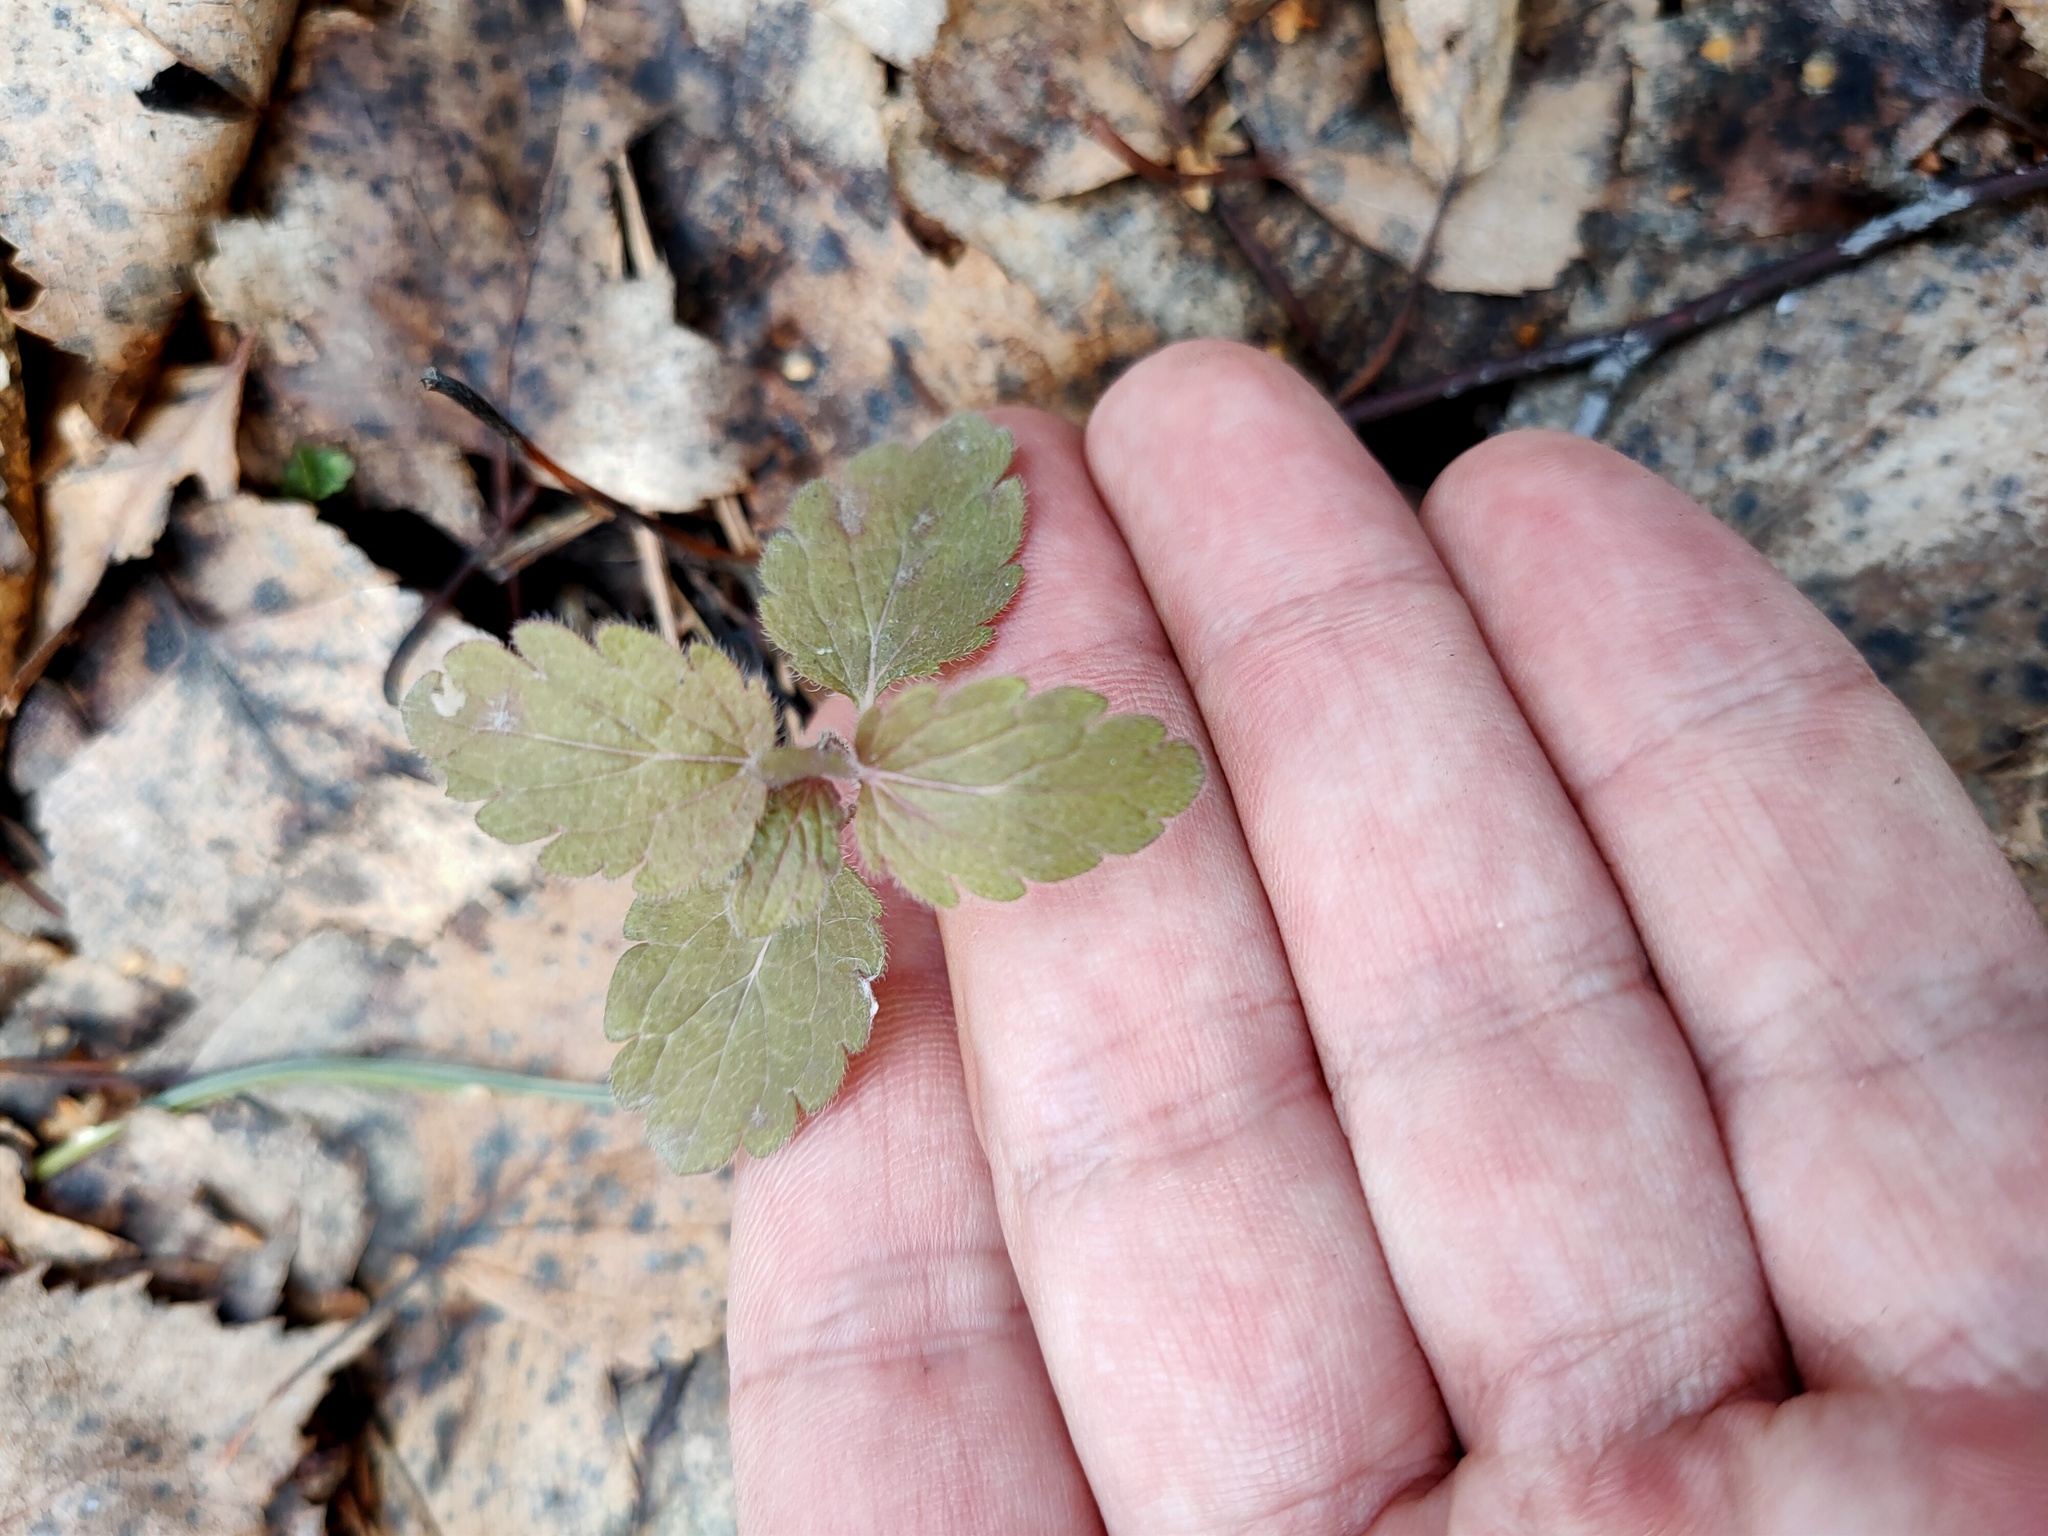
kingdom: Plantae
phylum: Tracheophyta
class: Magnoliopsida
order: Lamiales
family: Plantaginaceae
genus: Veronica
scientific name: Veronica chamaedrys
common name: Germander speedwell
